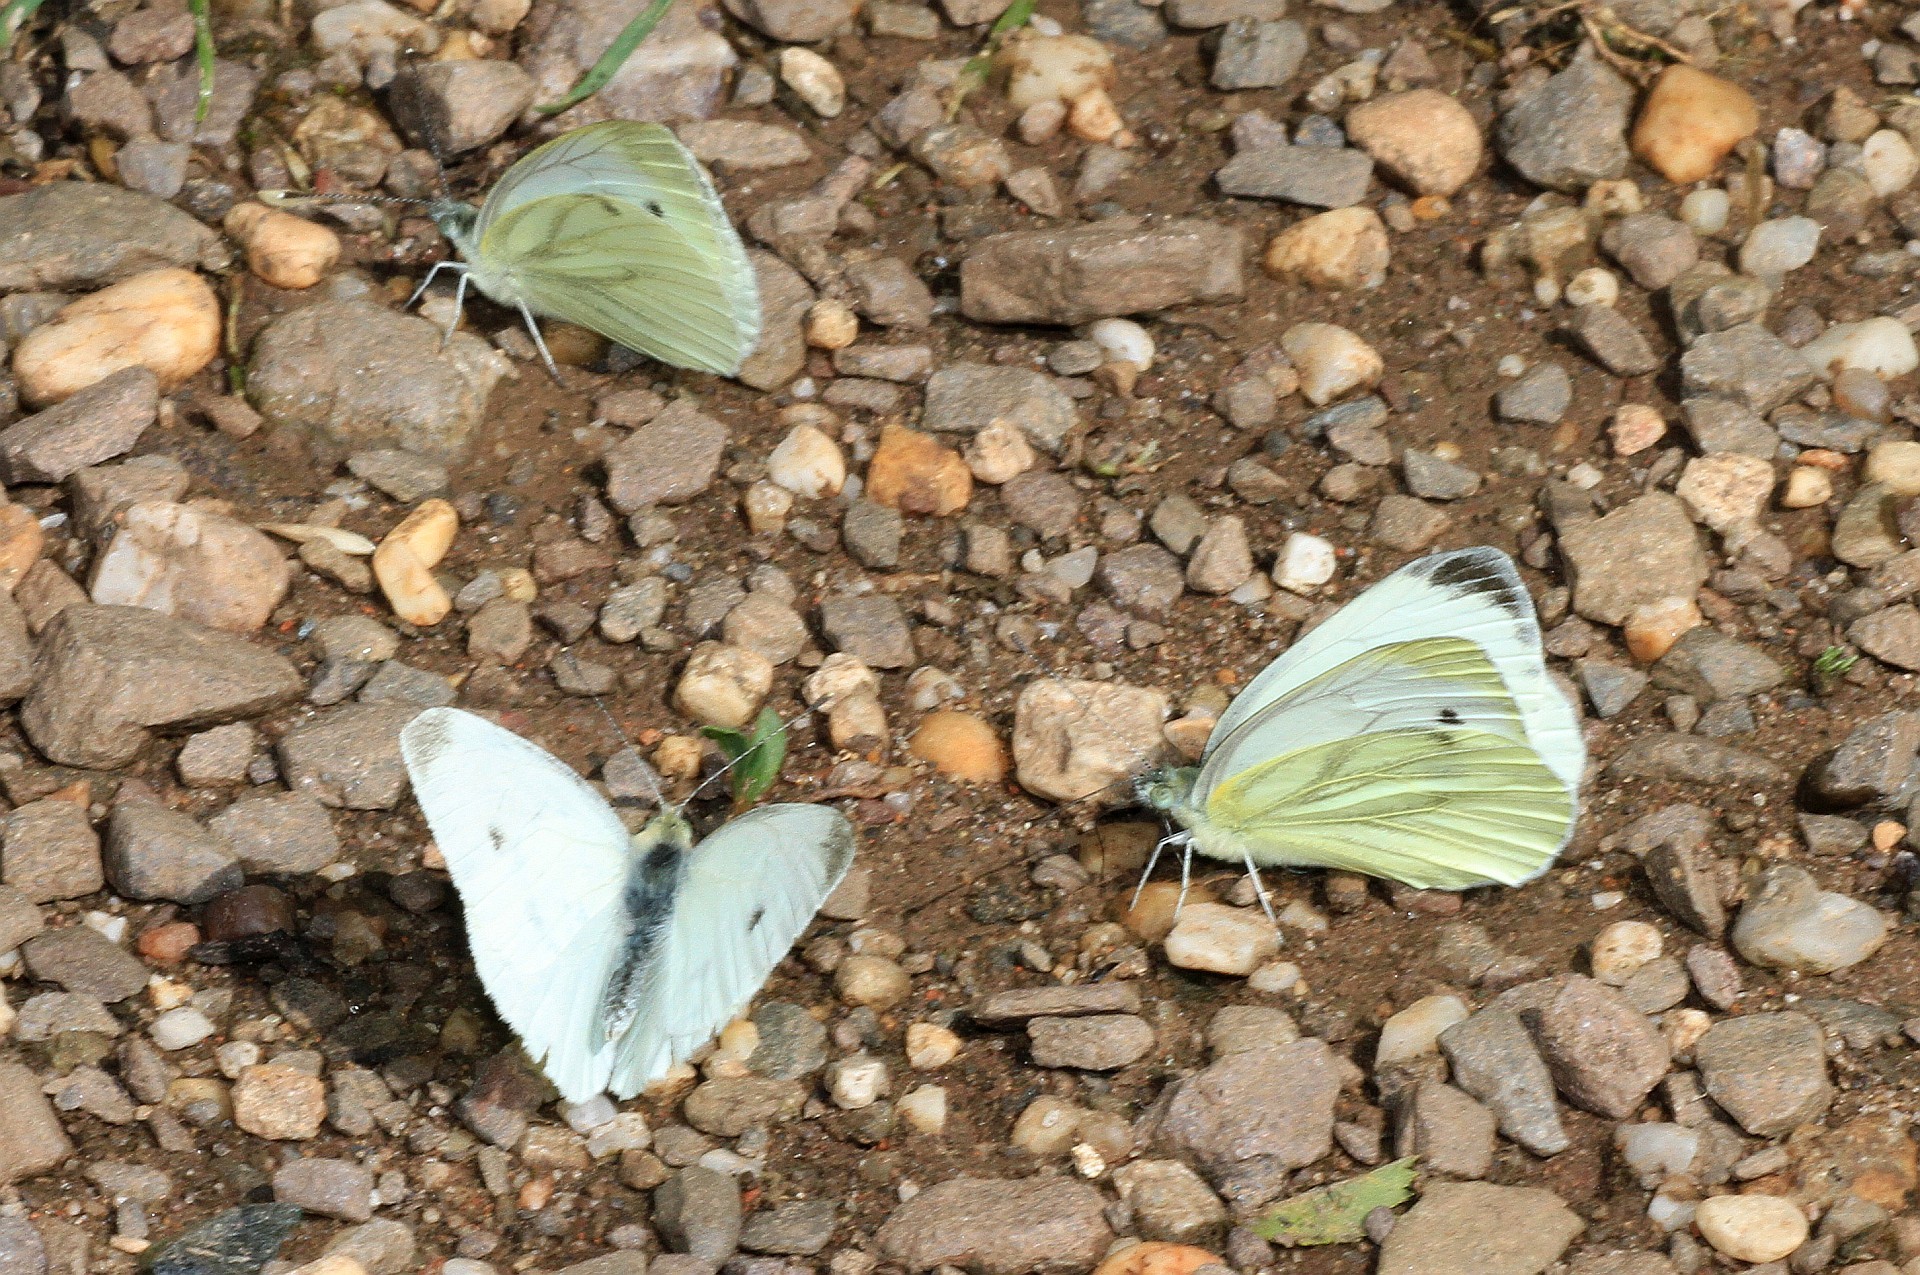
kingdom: Animalia
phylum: Arthropoda
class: Insecta
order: Lepidoptera
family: Pieridae
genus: Pieris
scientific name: Pieris napi
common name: Green-veined white
